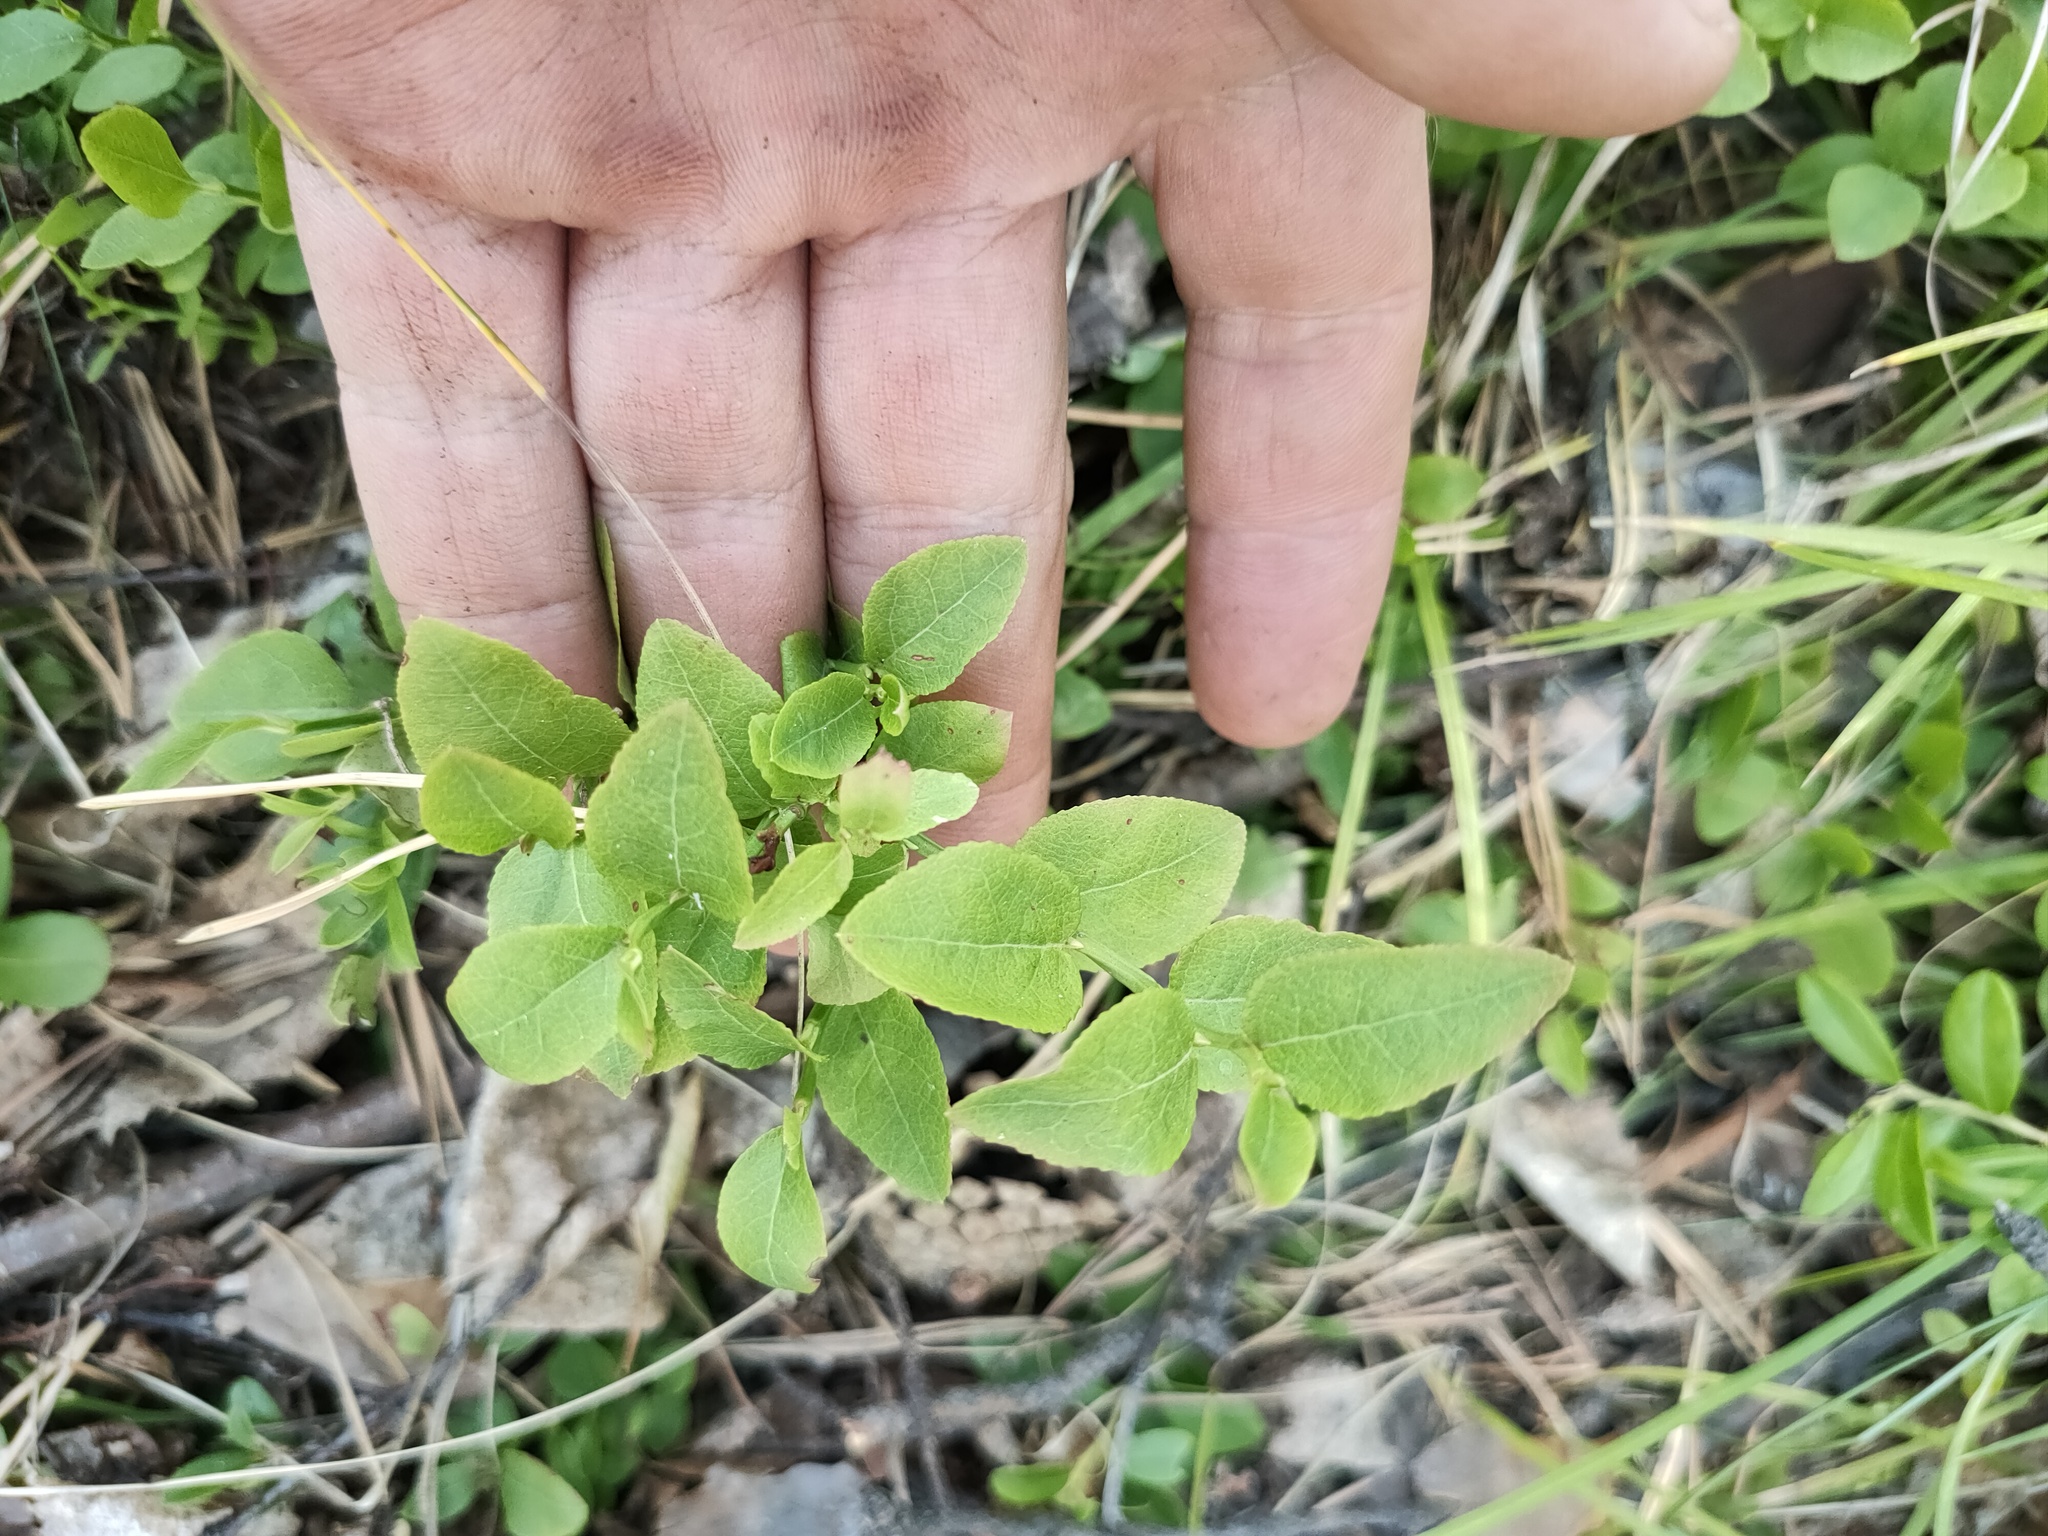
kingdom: Plantae
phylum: Tracheophyta
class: Magnoliopsida
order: Ericales
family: Ericaceae
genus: Vaccinium
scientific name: Vaccinium myrtillus
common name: Bilberry
